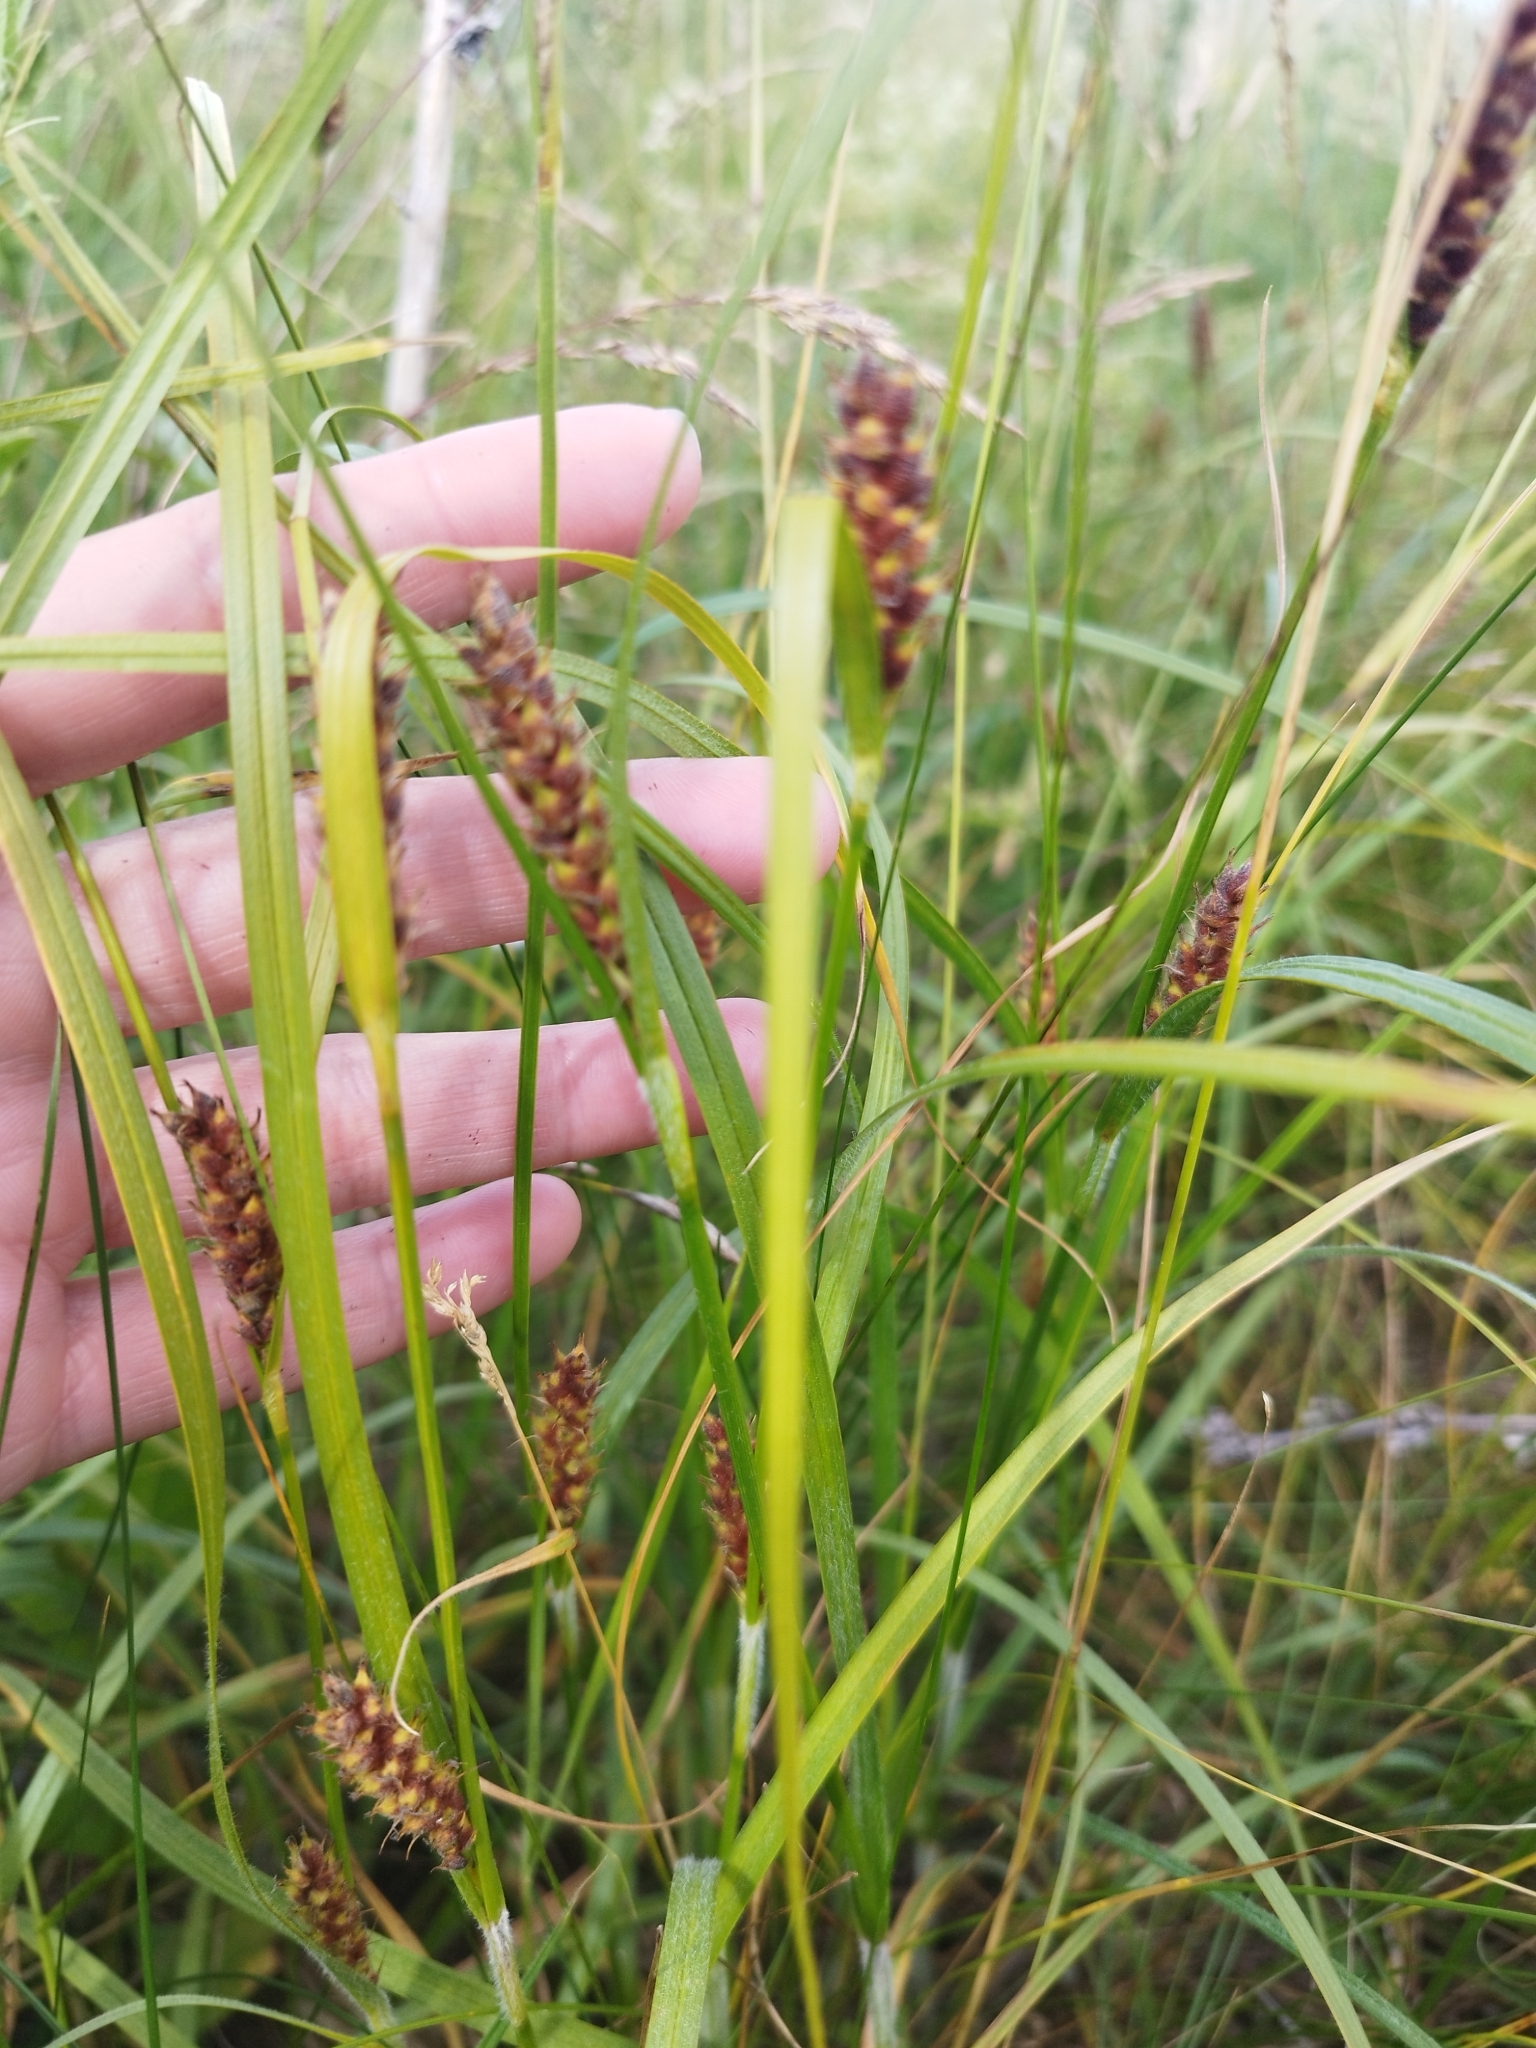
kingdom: Plantae
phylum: Tracheophyta
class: Liliopsida
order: Poales
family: Cyperaceae
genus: Carex
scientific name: Carex hirta
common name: Hairy sedge
